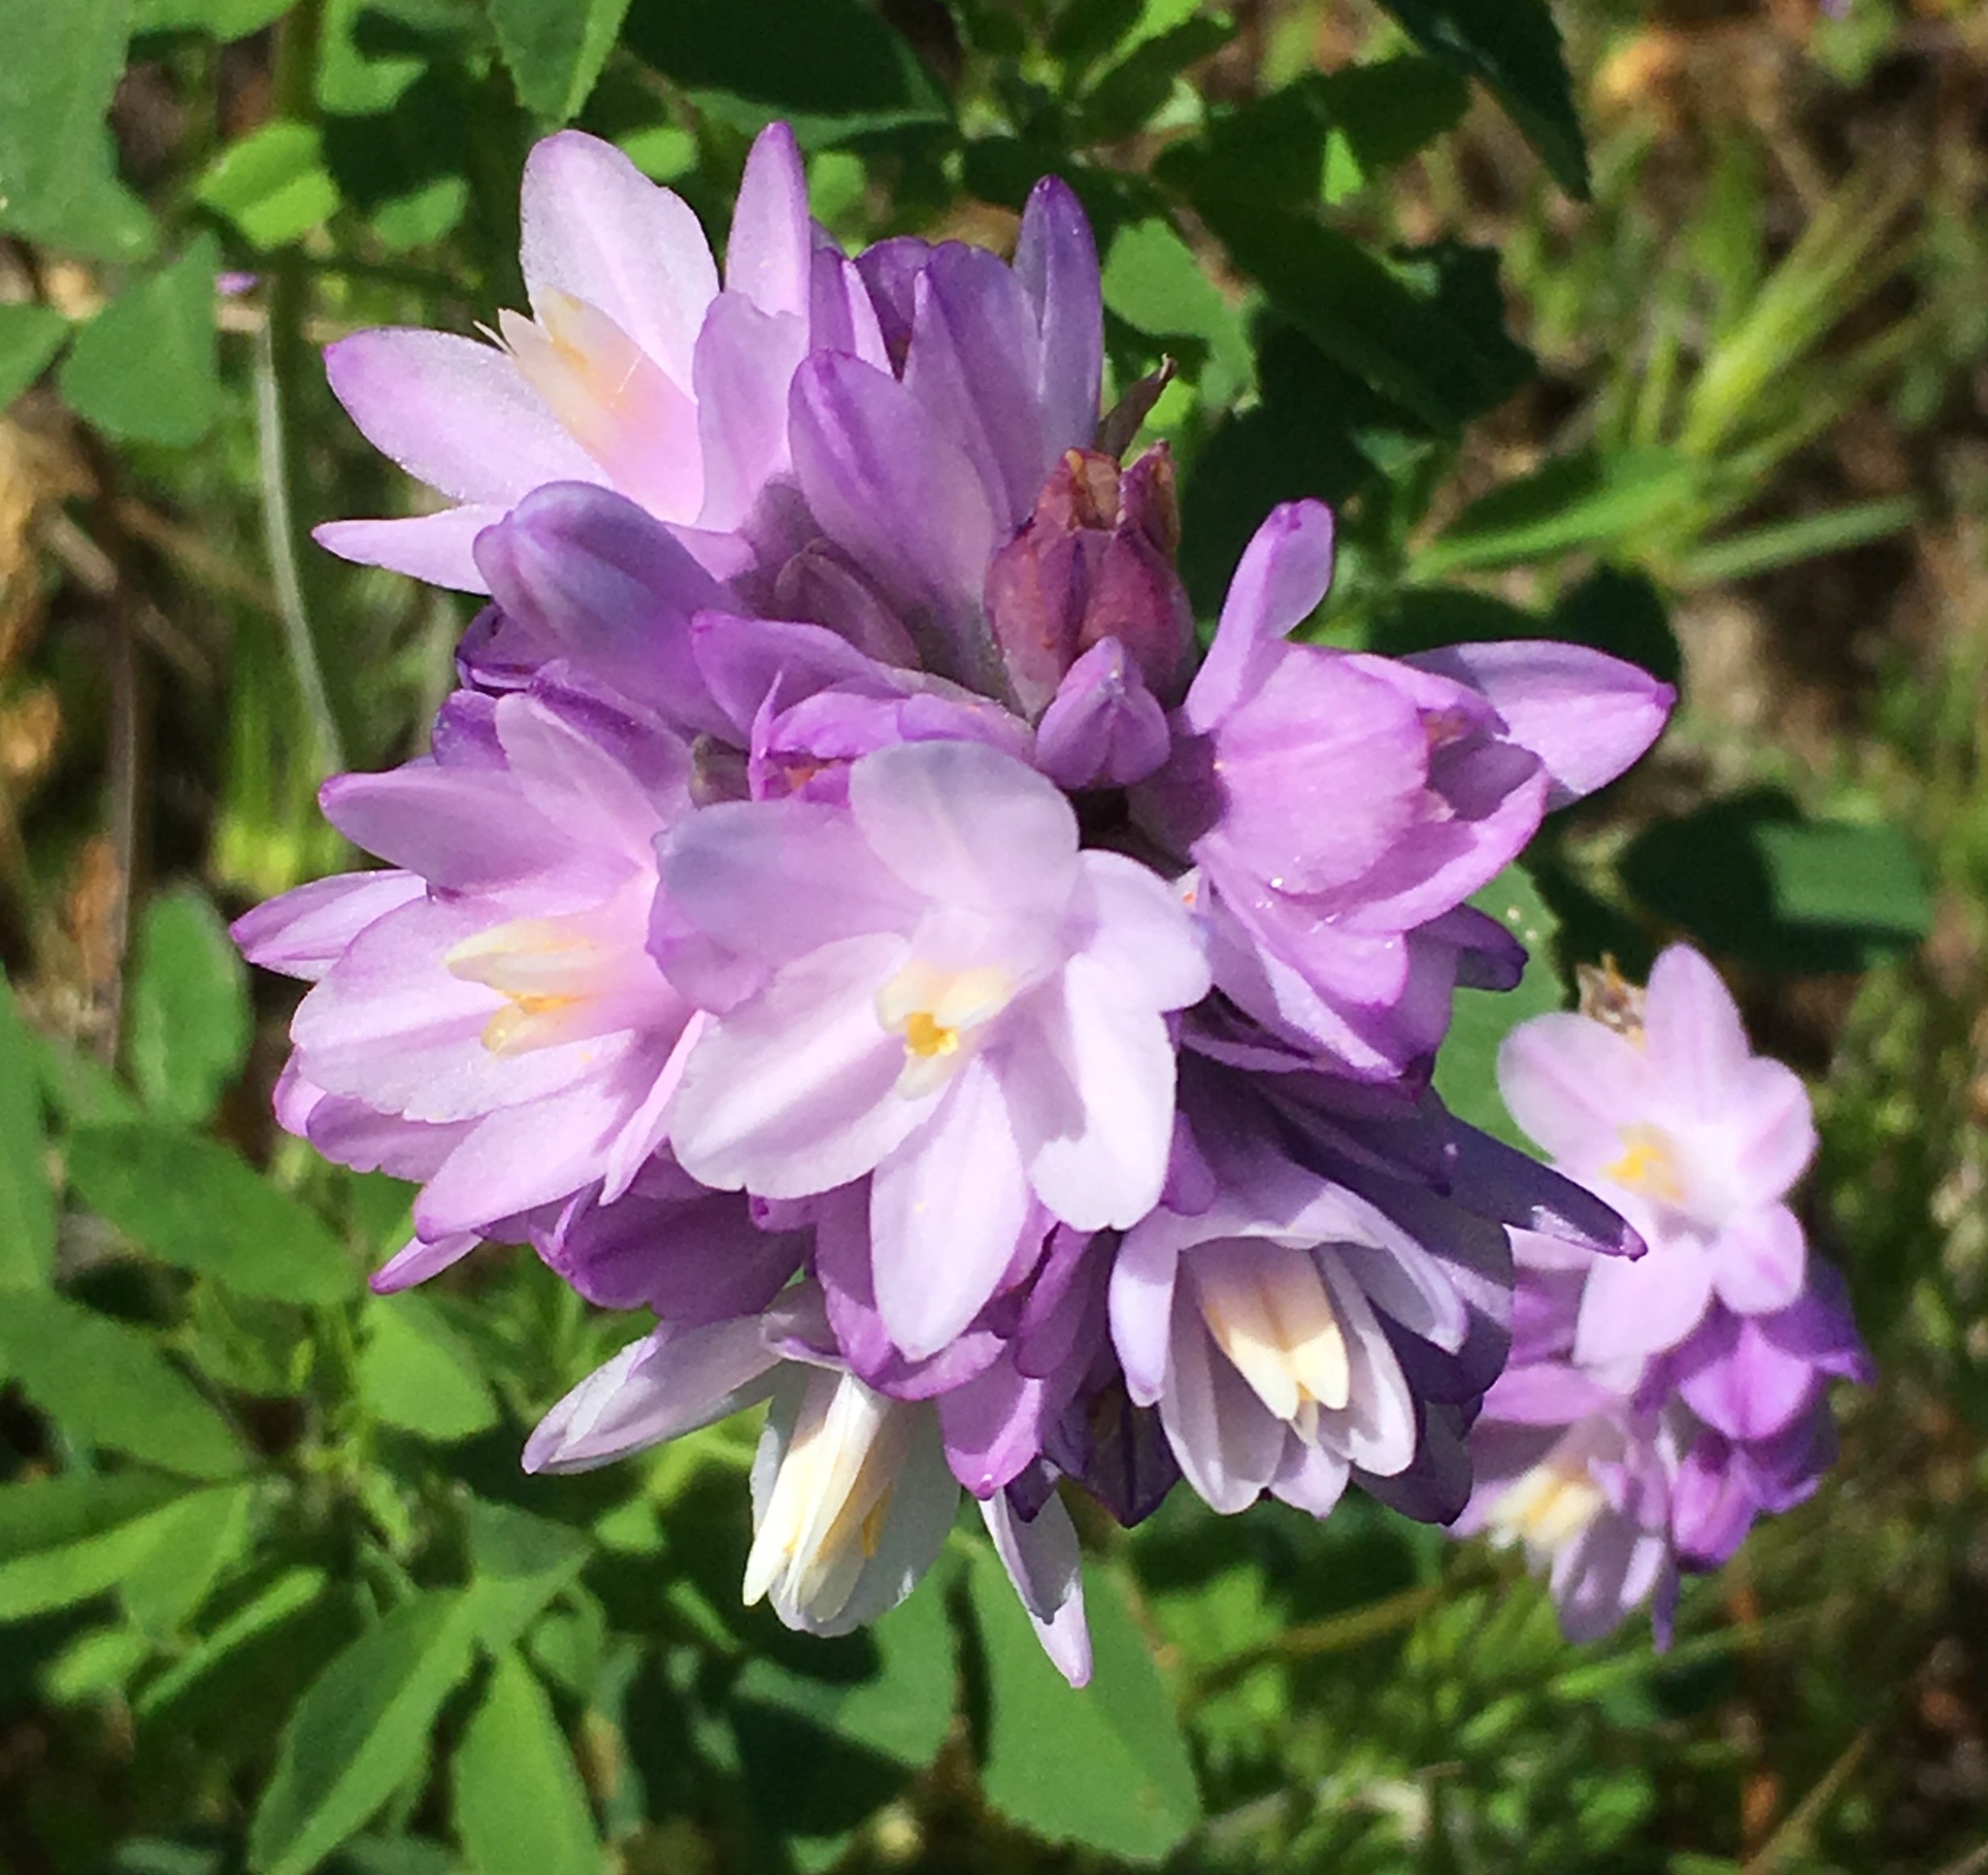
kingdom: Plantae
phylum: Tracheophyta
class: Liliopsida
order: Asparagales
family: Asparagaceae
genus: Dipterostemon
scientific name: Dipterostemon capitatus
